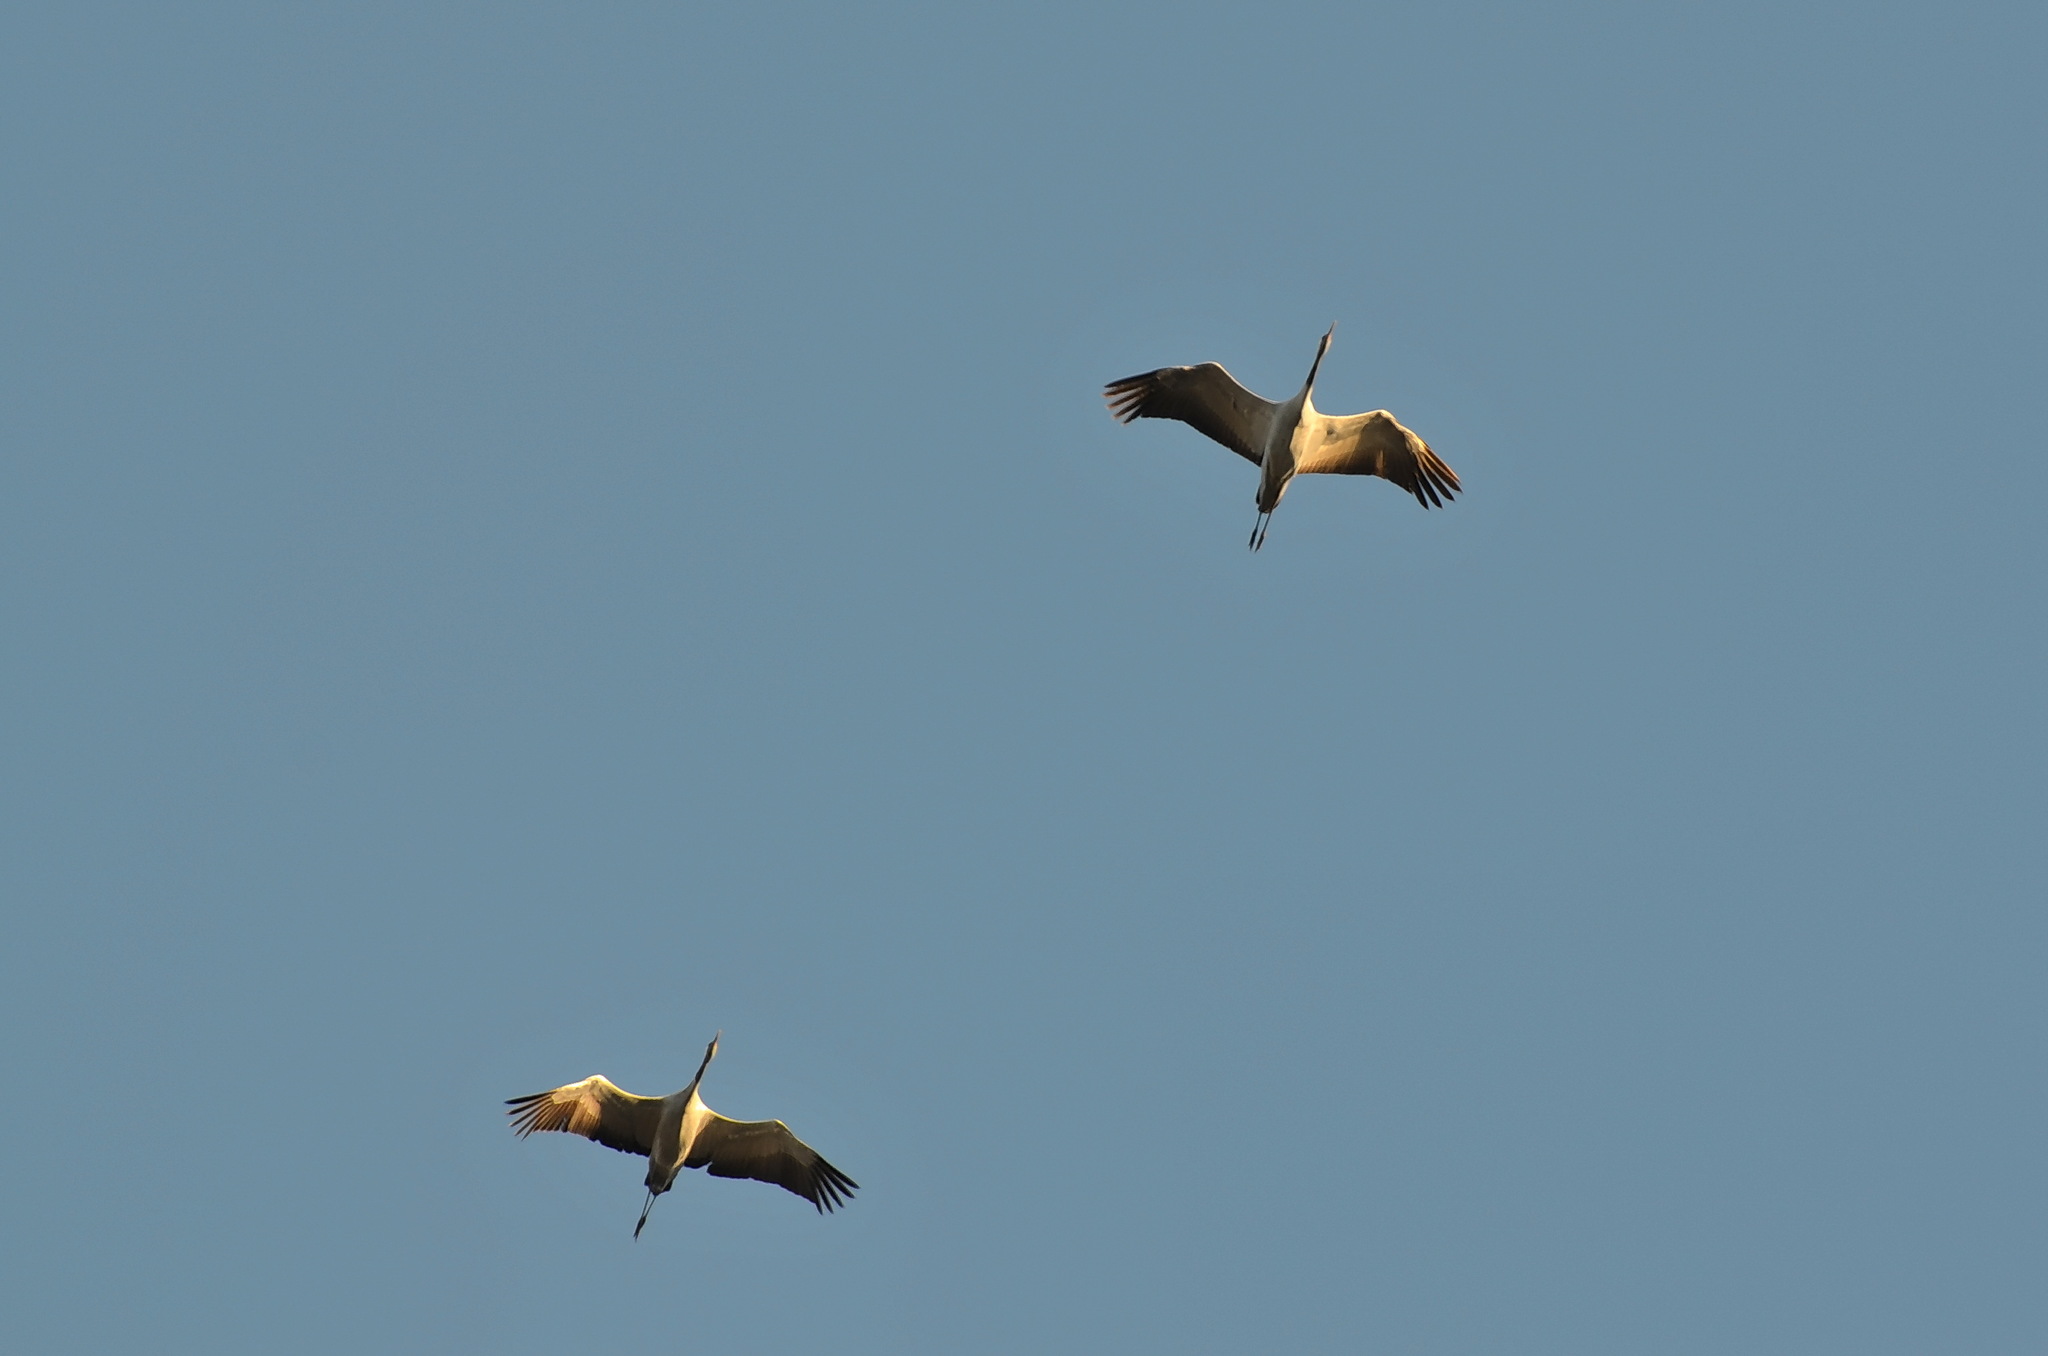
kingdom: Animalia
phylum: Chordata
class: Aves
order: Gruiformes
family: Gruidae
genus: Grus
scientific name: Grus grus
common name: Common crane
